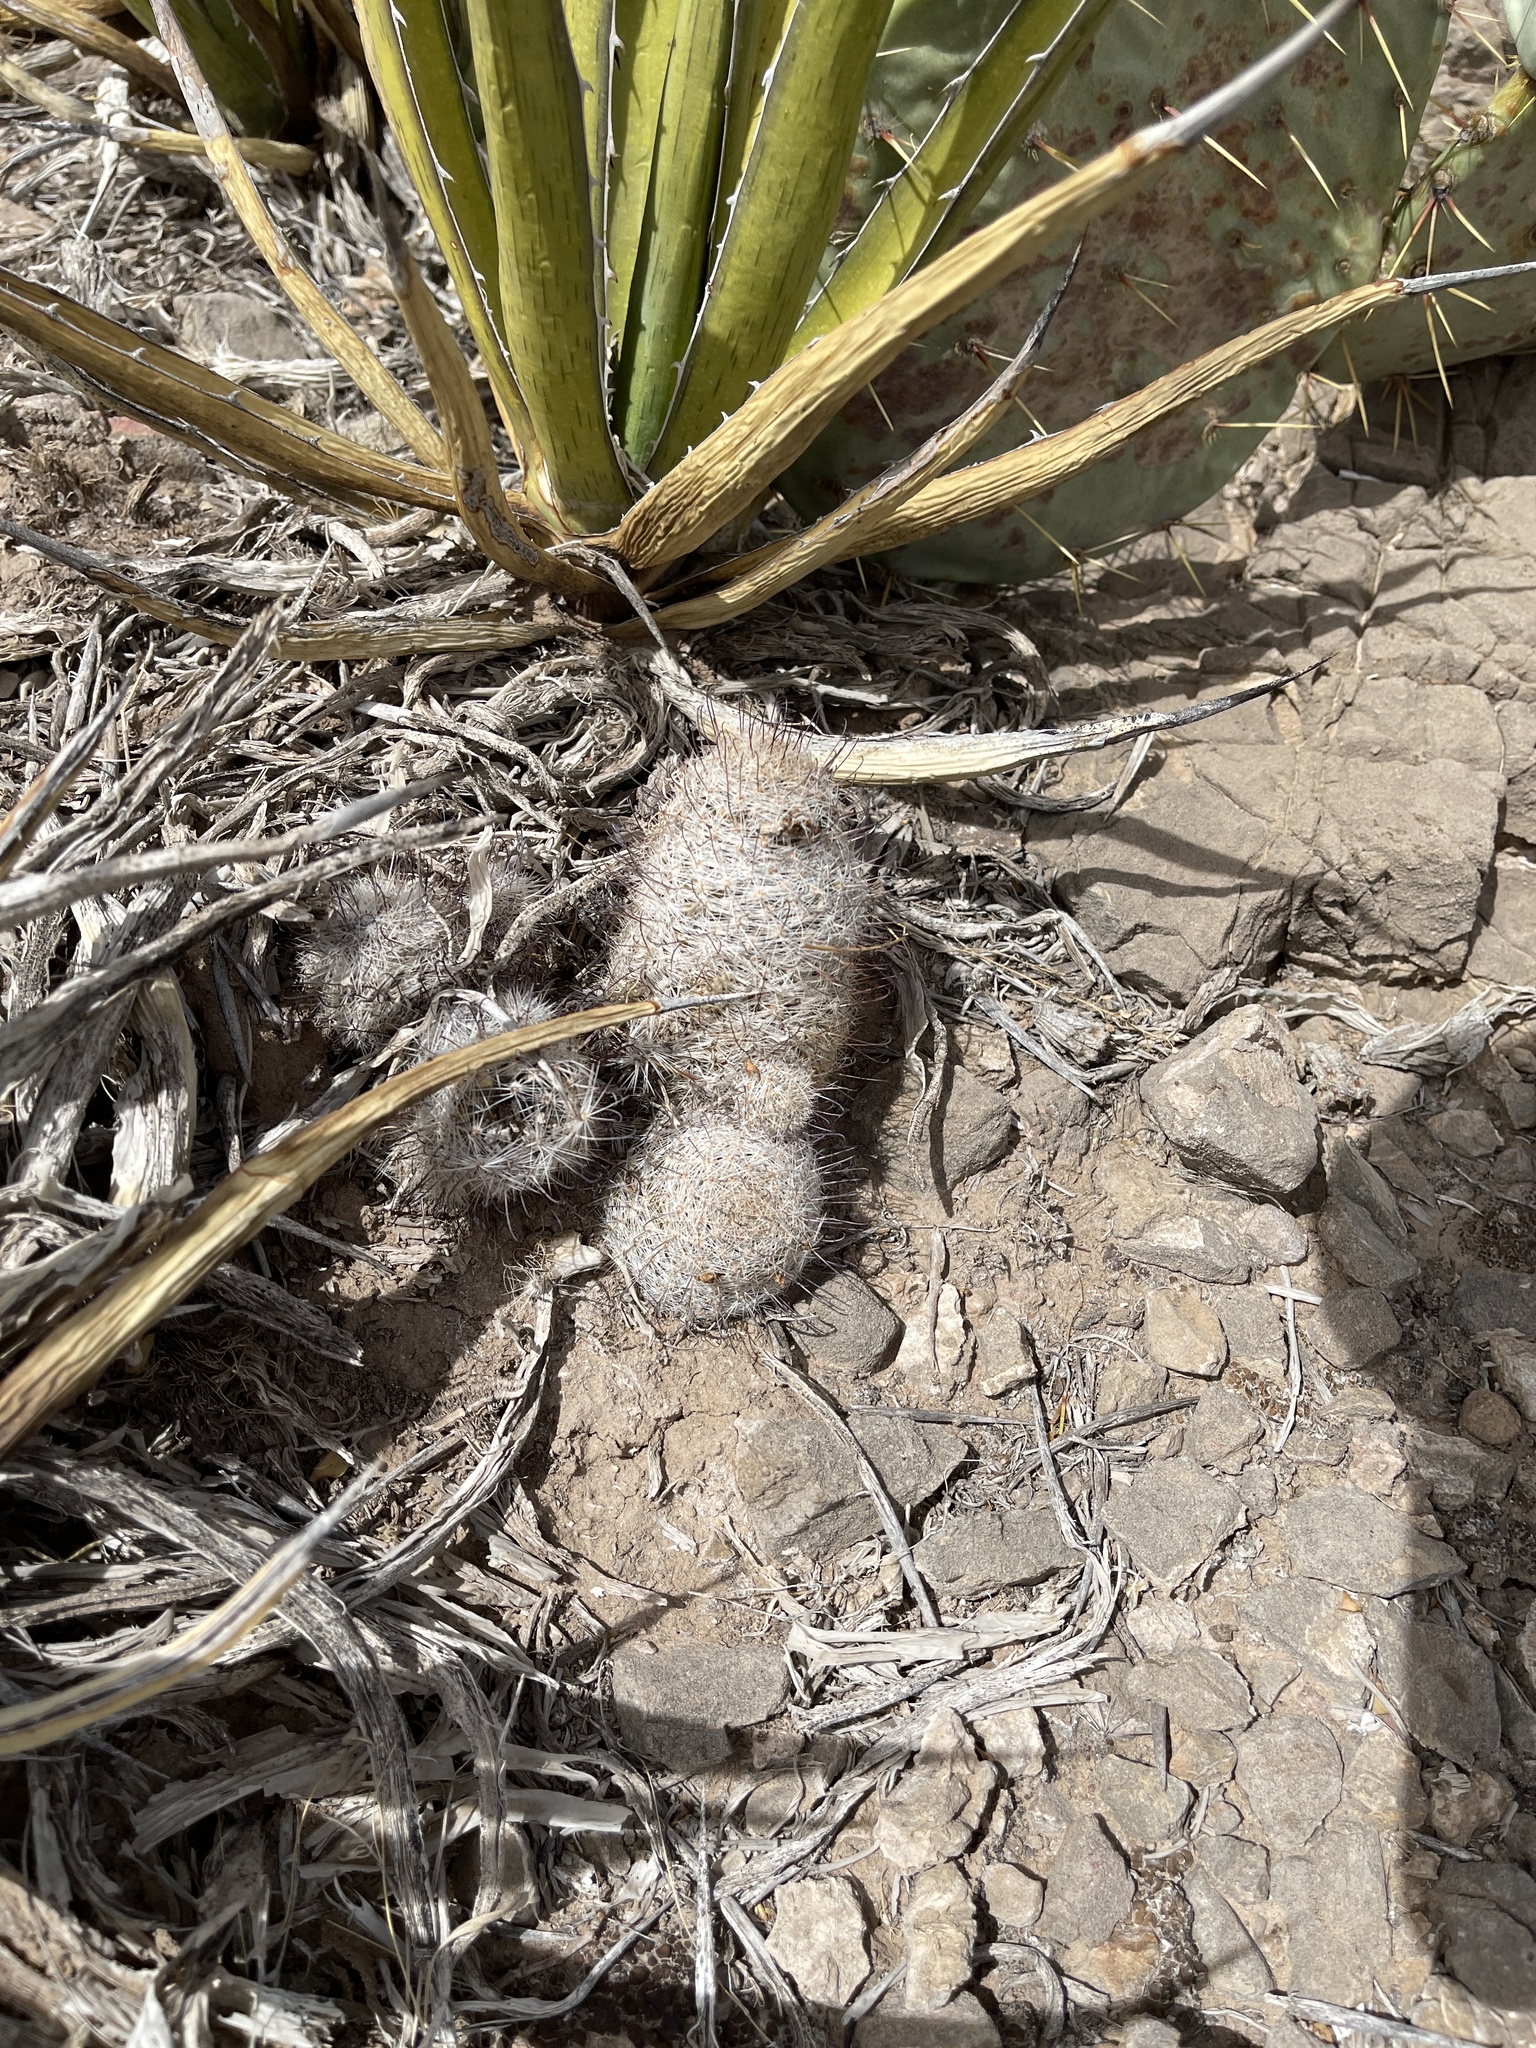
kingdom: Plantae
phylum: Tracheophyta
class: Magnoliopsida
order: Caryophyllales
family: Cactaceae
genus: Pelecyphora
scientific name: Pelecyphora tuberculosa
